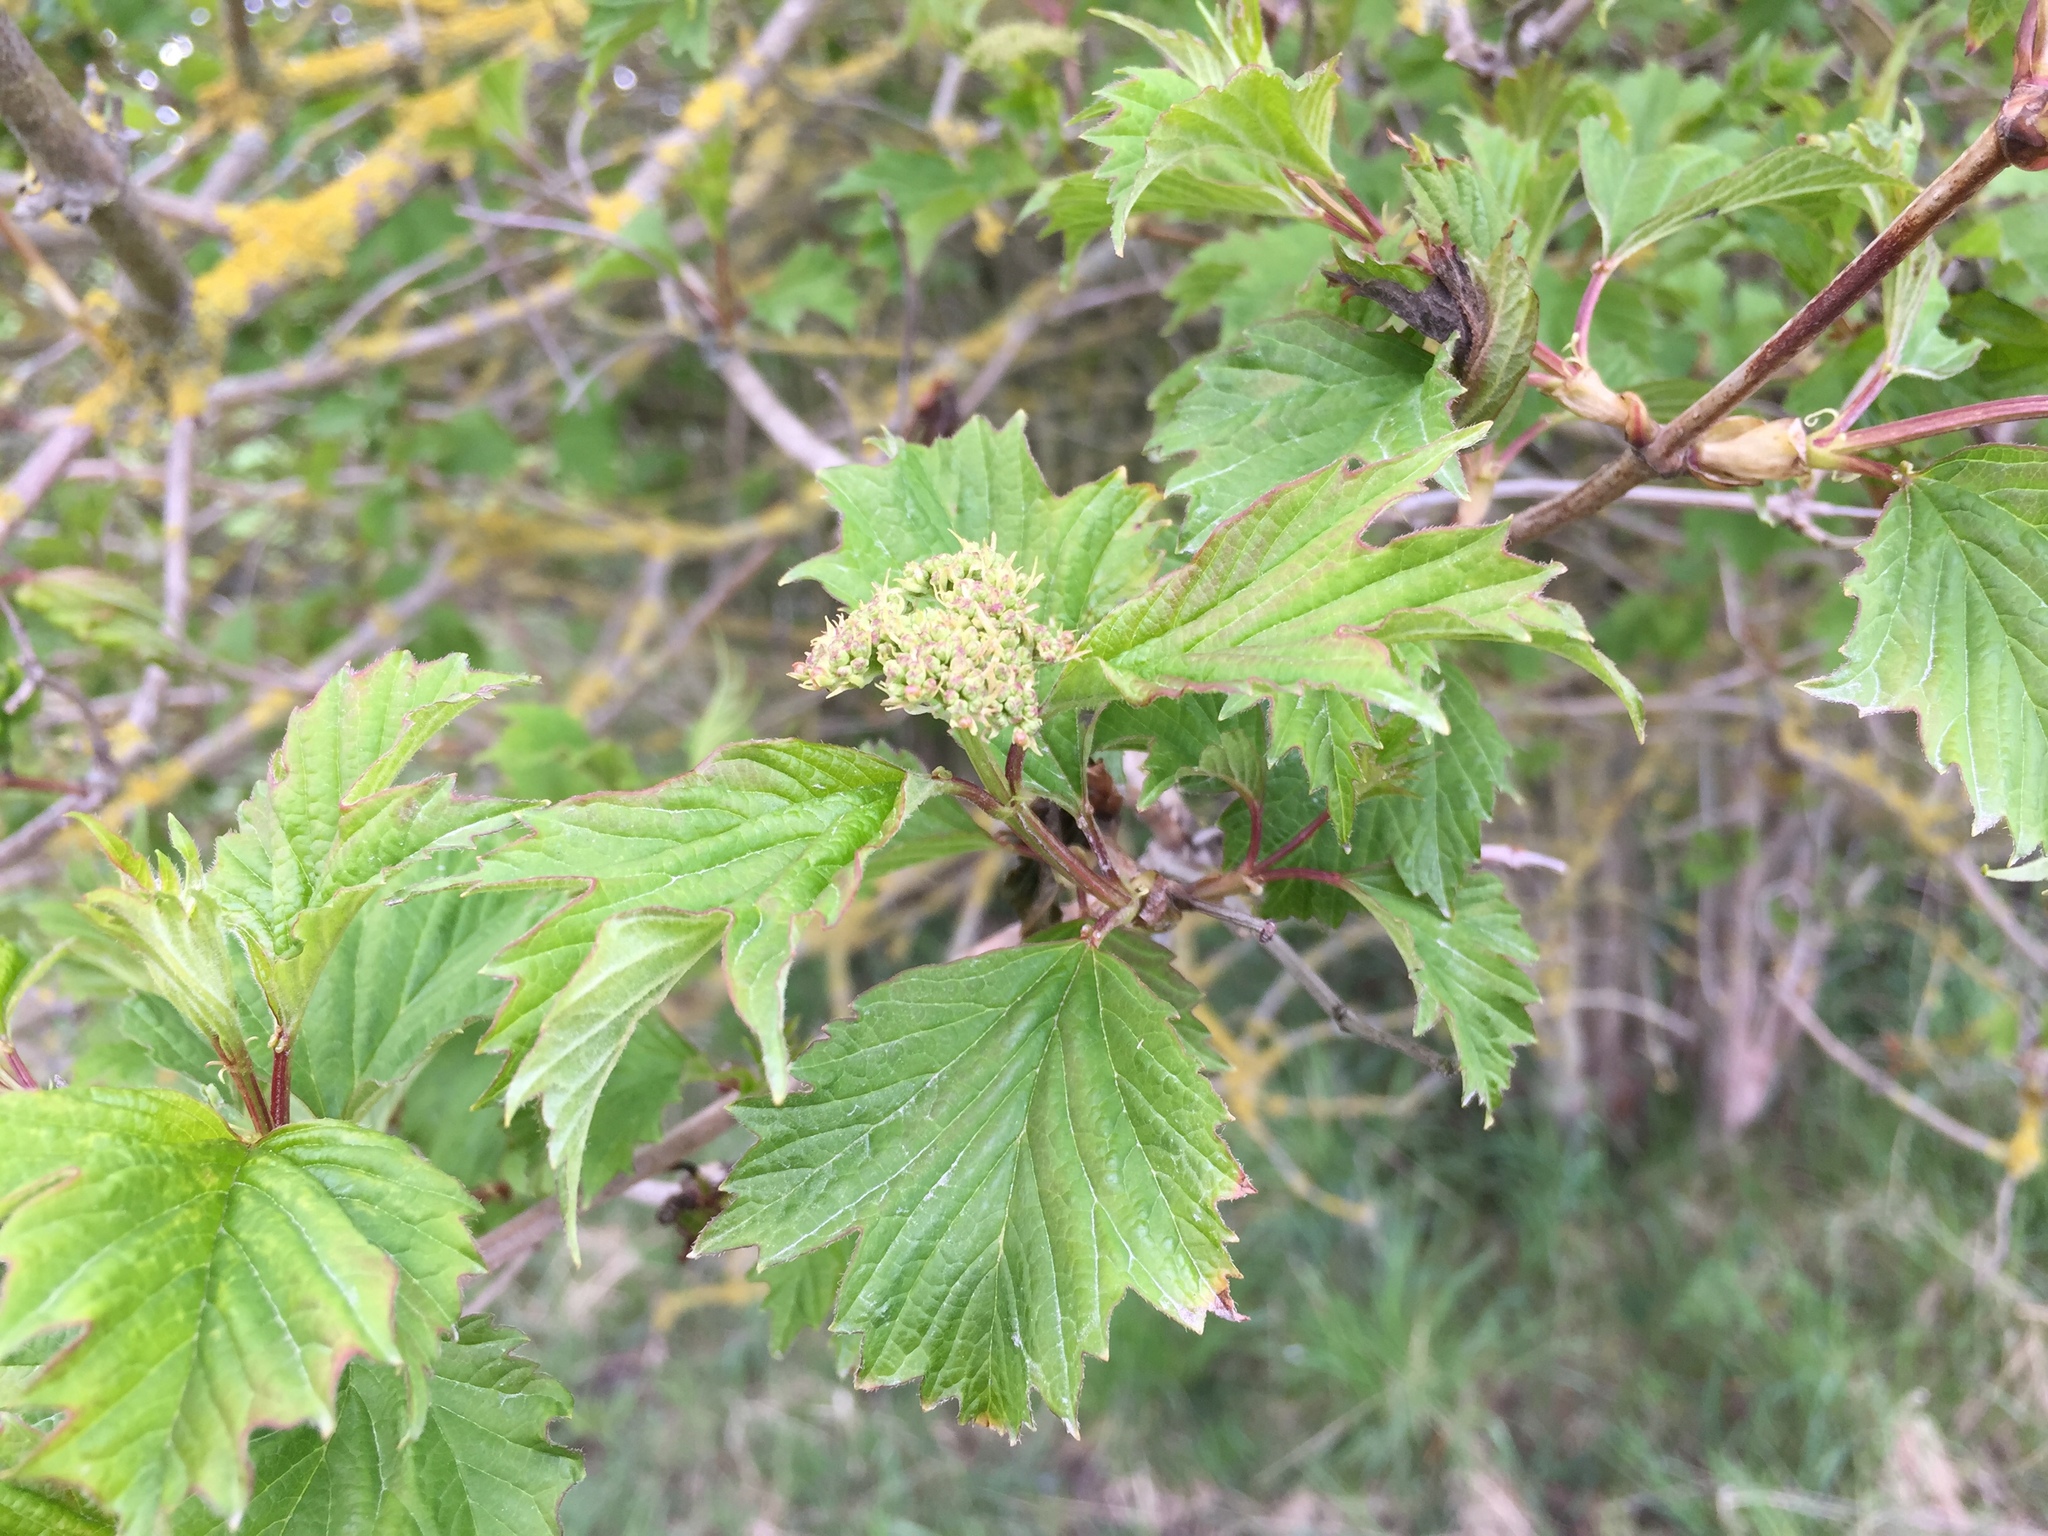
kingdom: Plantae
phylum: Tracheophyta
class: Magnoliopsida
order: Dipsacales
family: Viburnaceae
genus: Viburnum
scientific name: Viburnum opulus
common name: Guelder-rose
